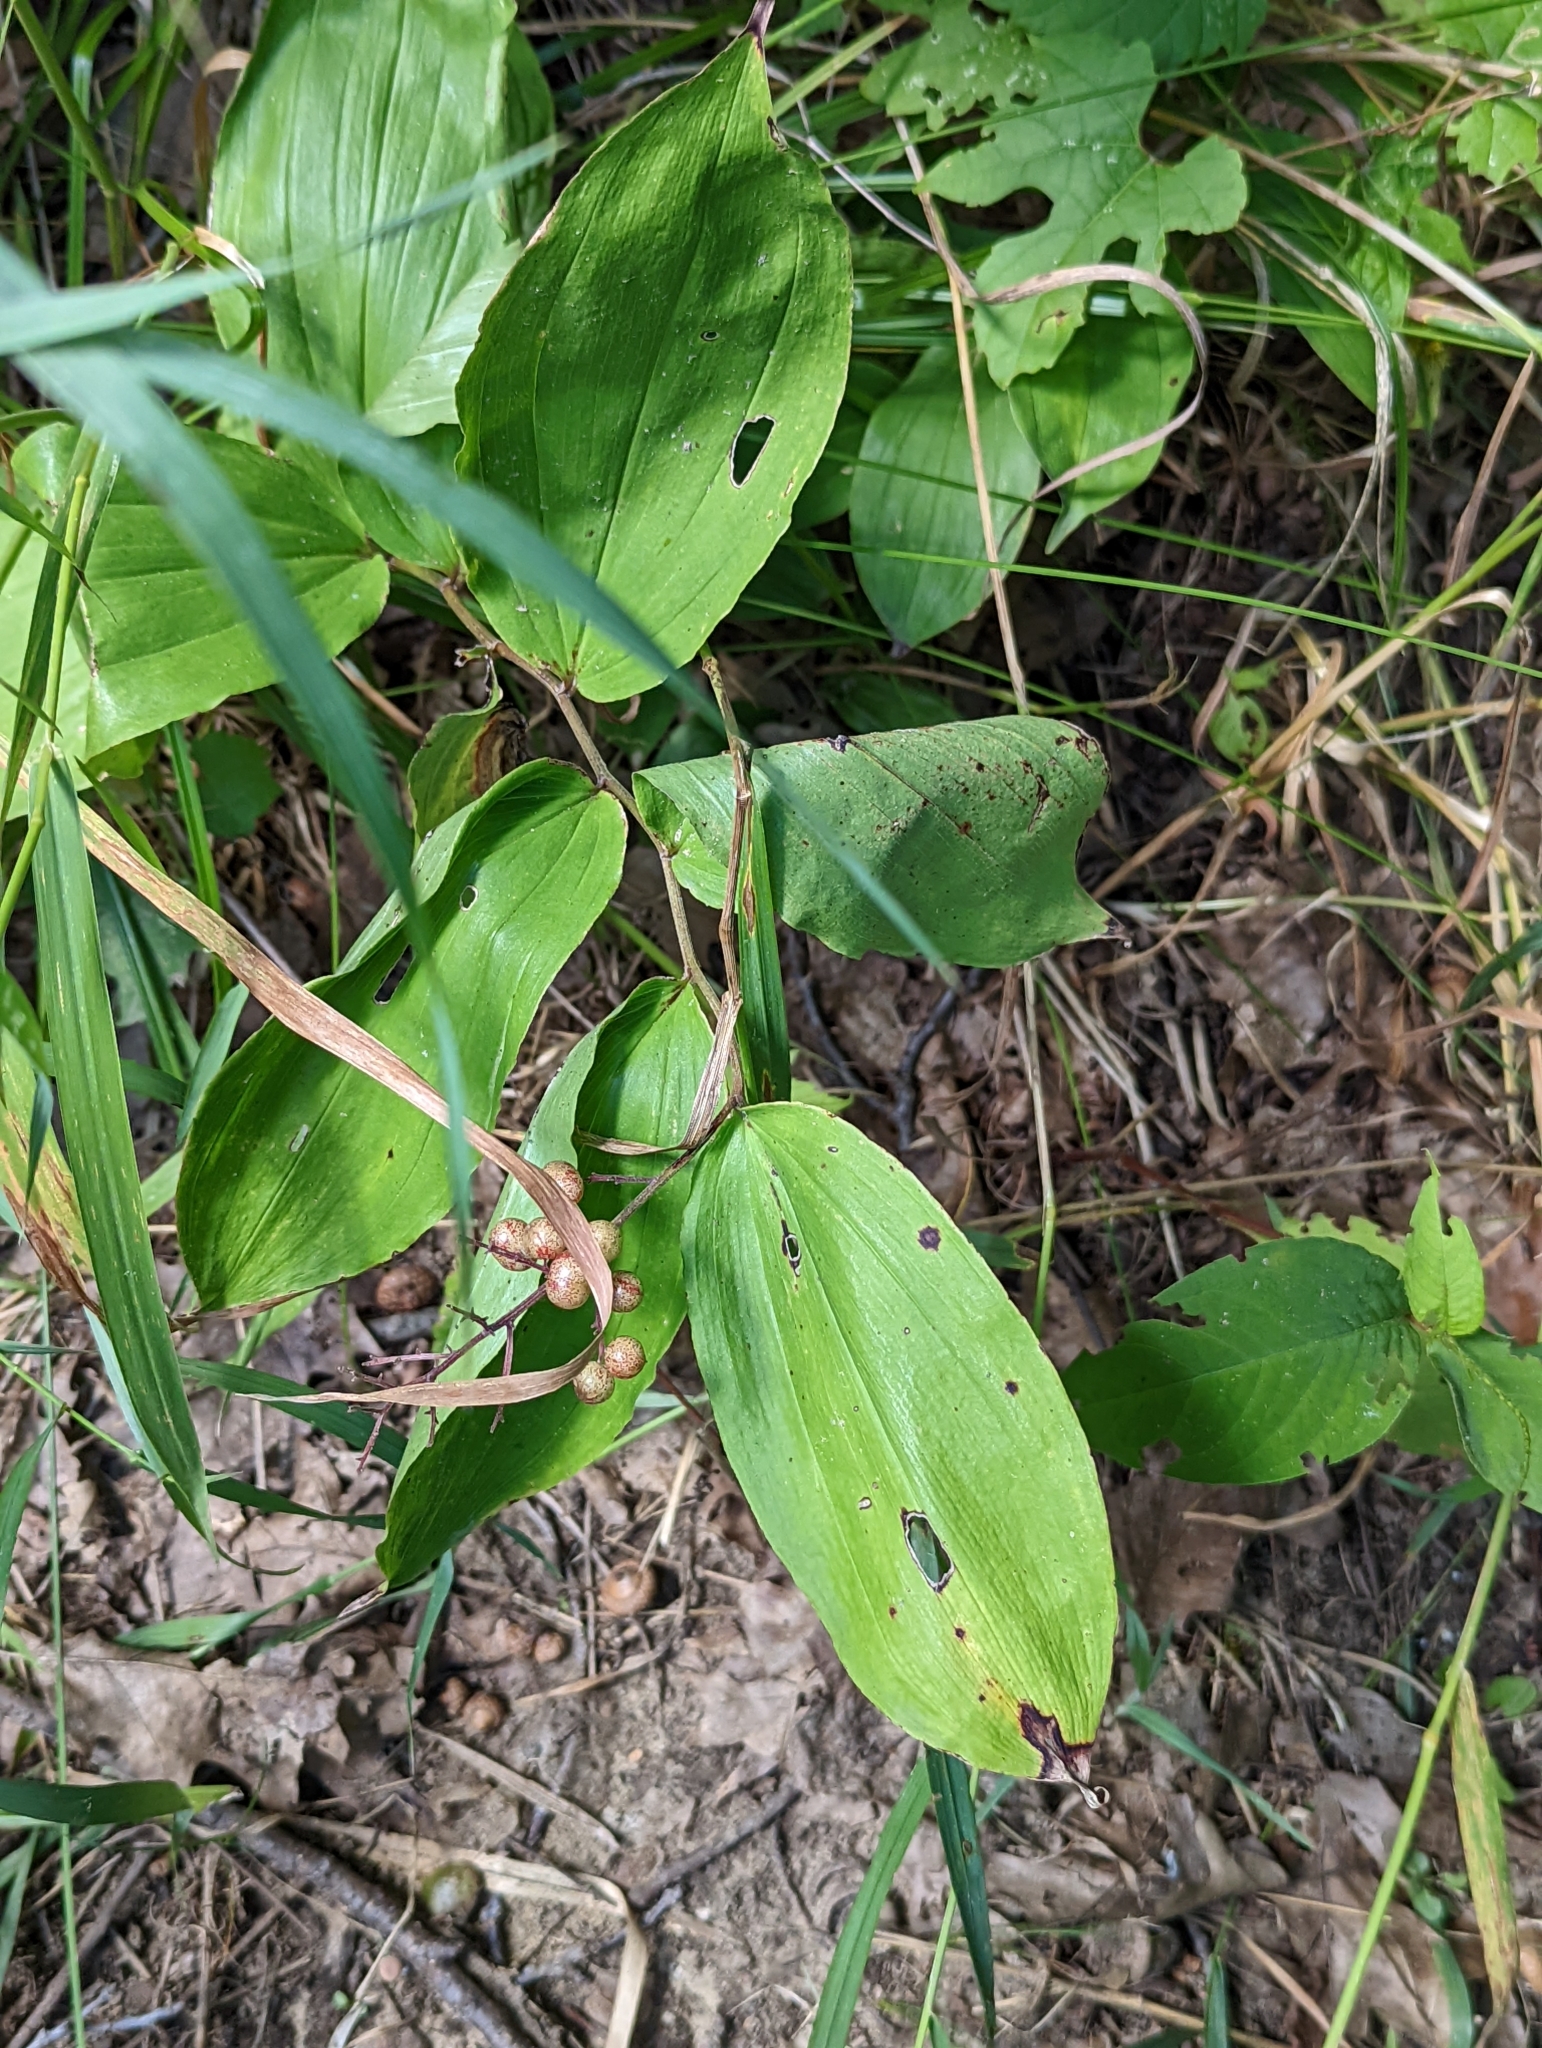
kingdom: Plantae
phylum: Tracheophyta
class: Liliopsida
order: Asparagales
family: Asparagaceae
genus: Maianthemum
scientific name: Maianthemum racemosum
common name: False spikenard
